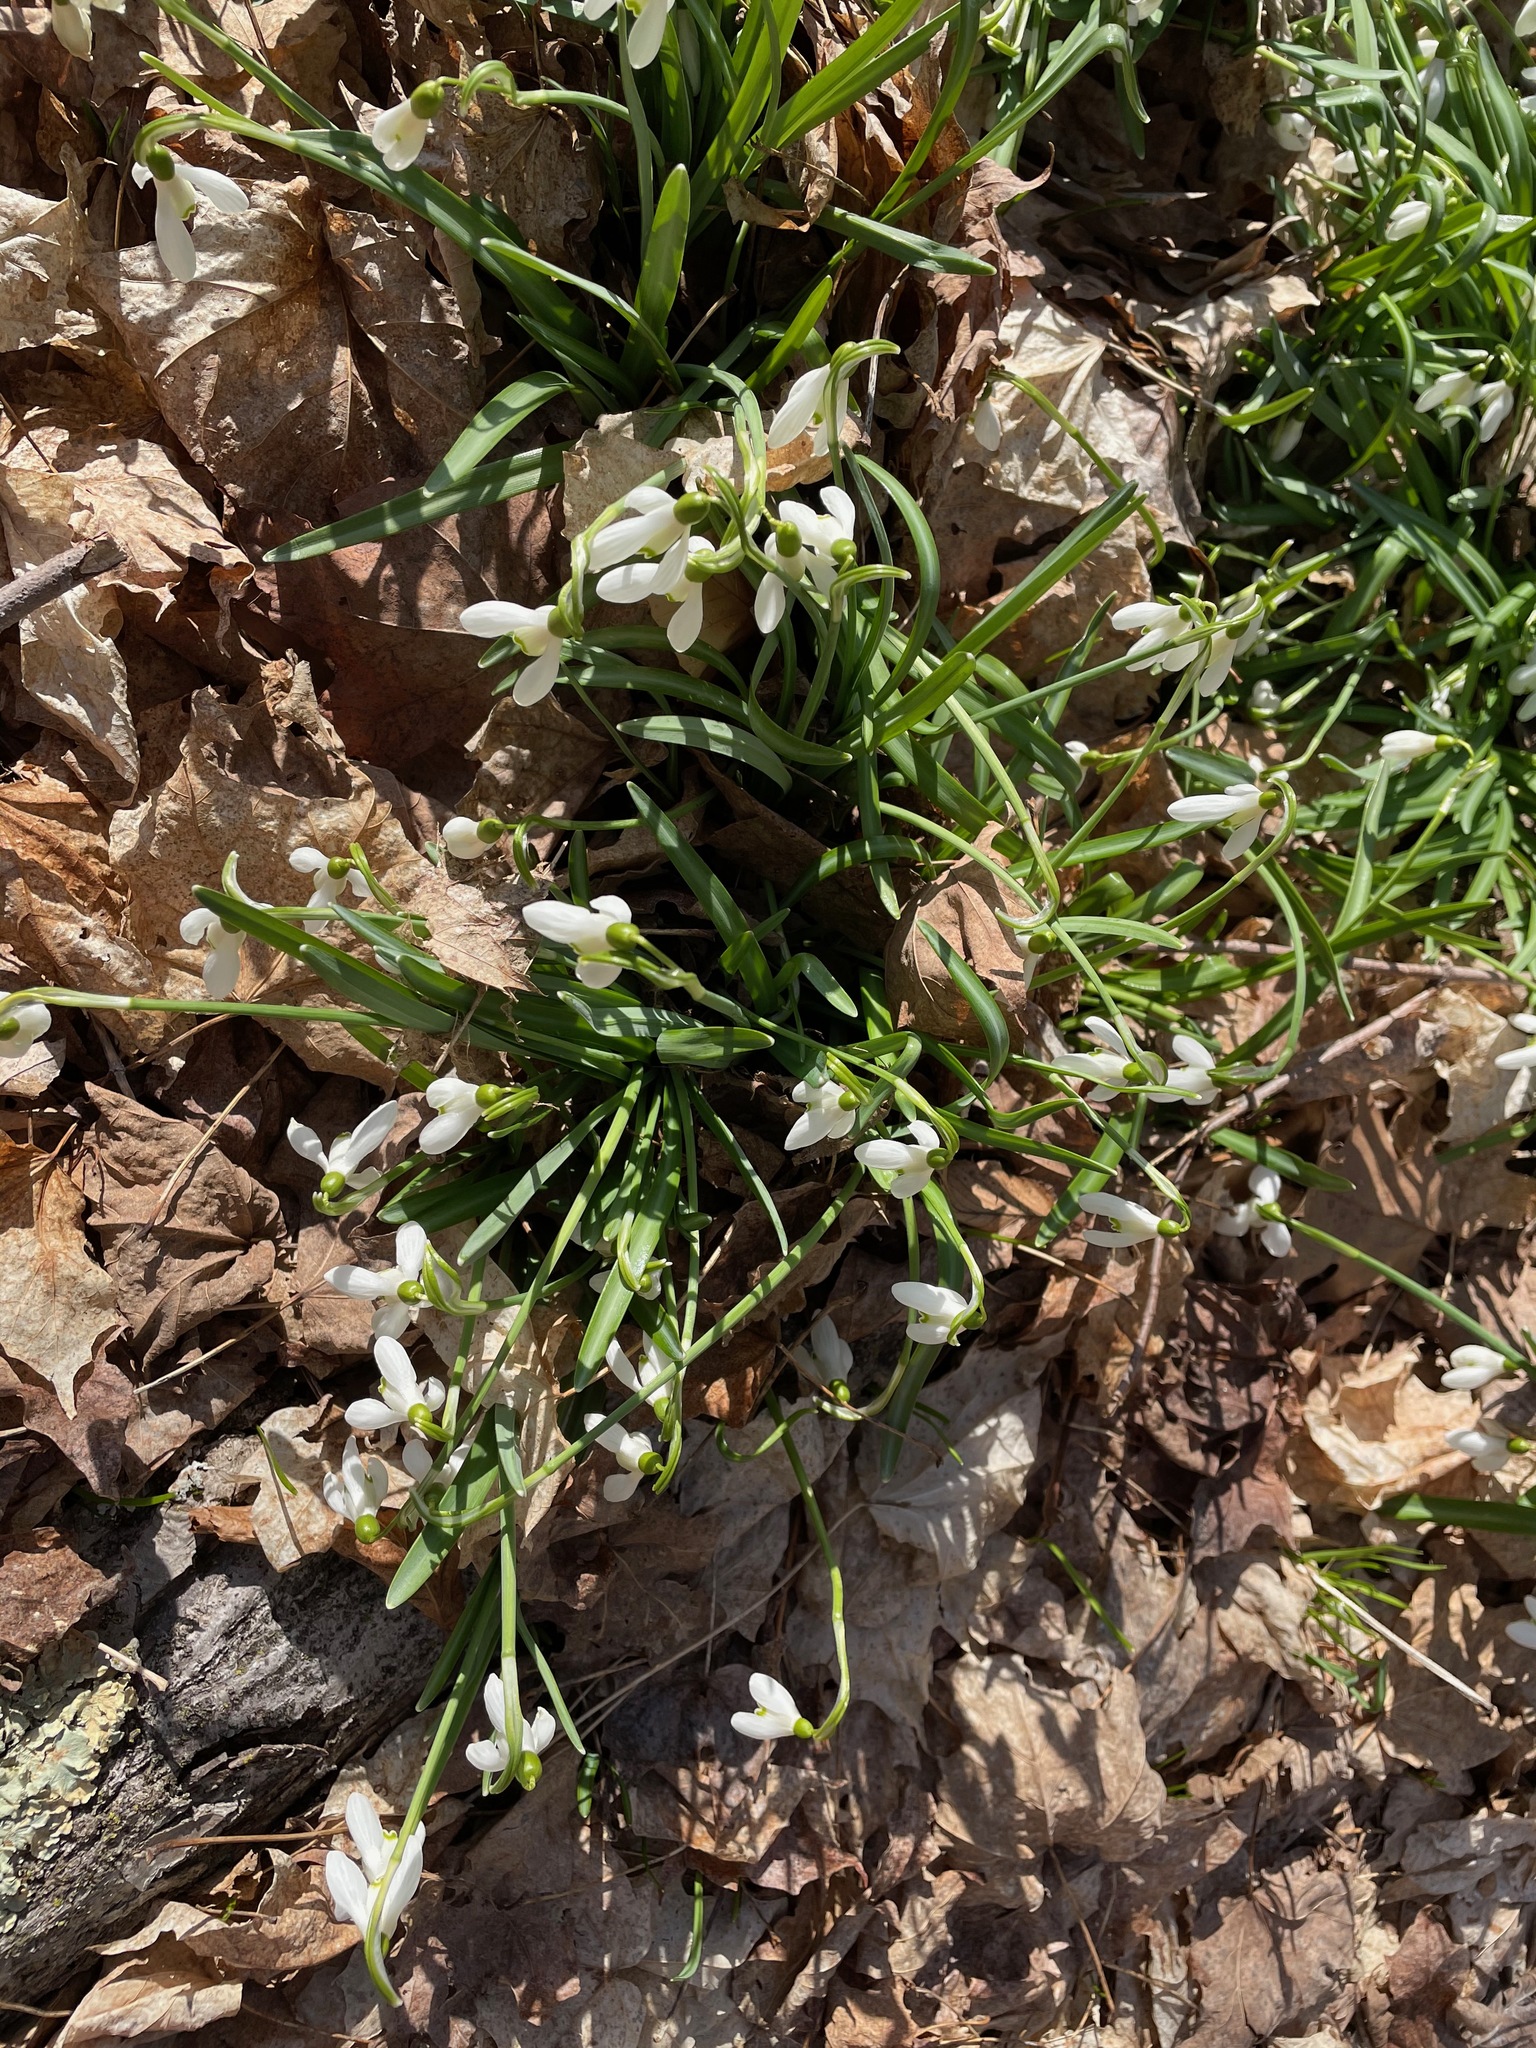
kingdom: Plantae
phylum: Tracheophyta
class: Liliopsida
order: Asparagales
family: Amaryllidaceae
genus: Galanthus
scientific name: Galanthus nivalis
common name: Snowdrop
